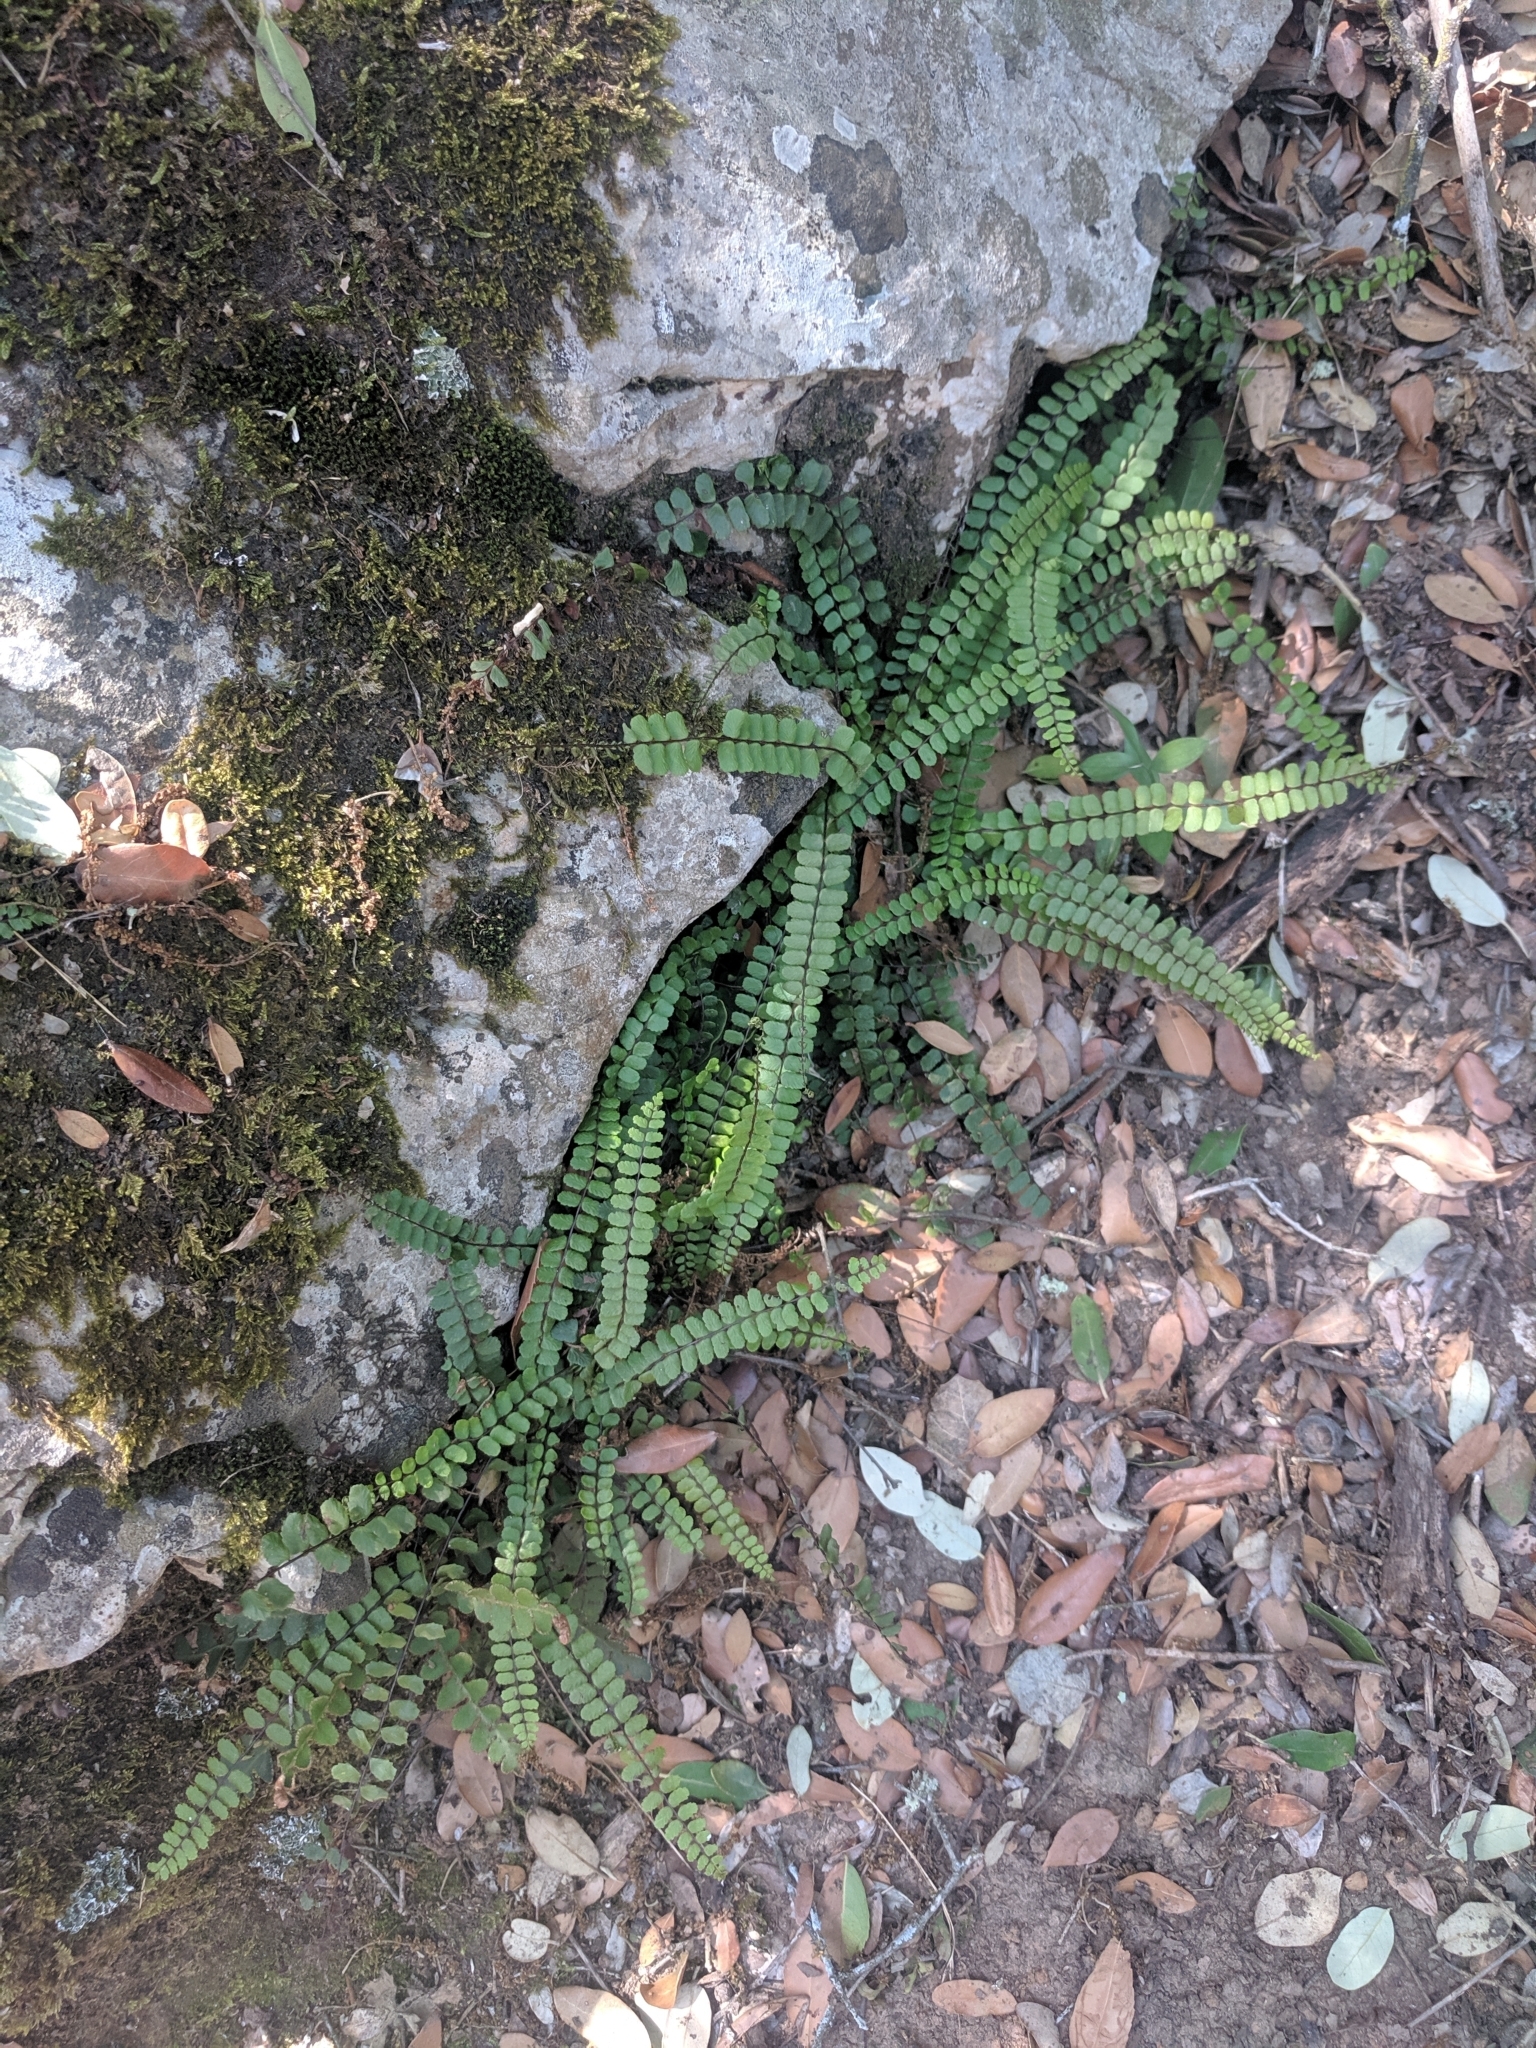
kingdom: Plantae
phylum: Tracheophyta
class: Polypodiopsida
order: Polypodiales
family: Aspleniaceae
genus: Asplenium
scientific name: Asplenium trichomanes
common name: Maidenhair spleenwort
